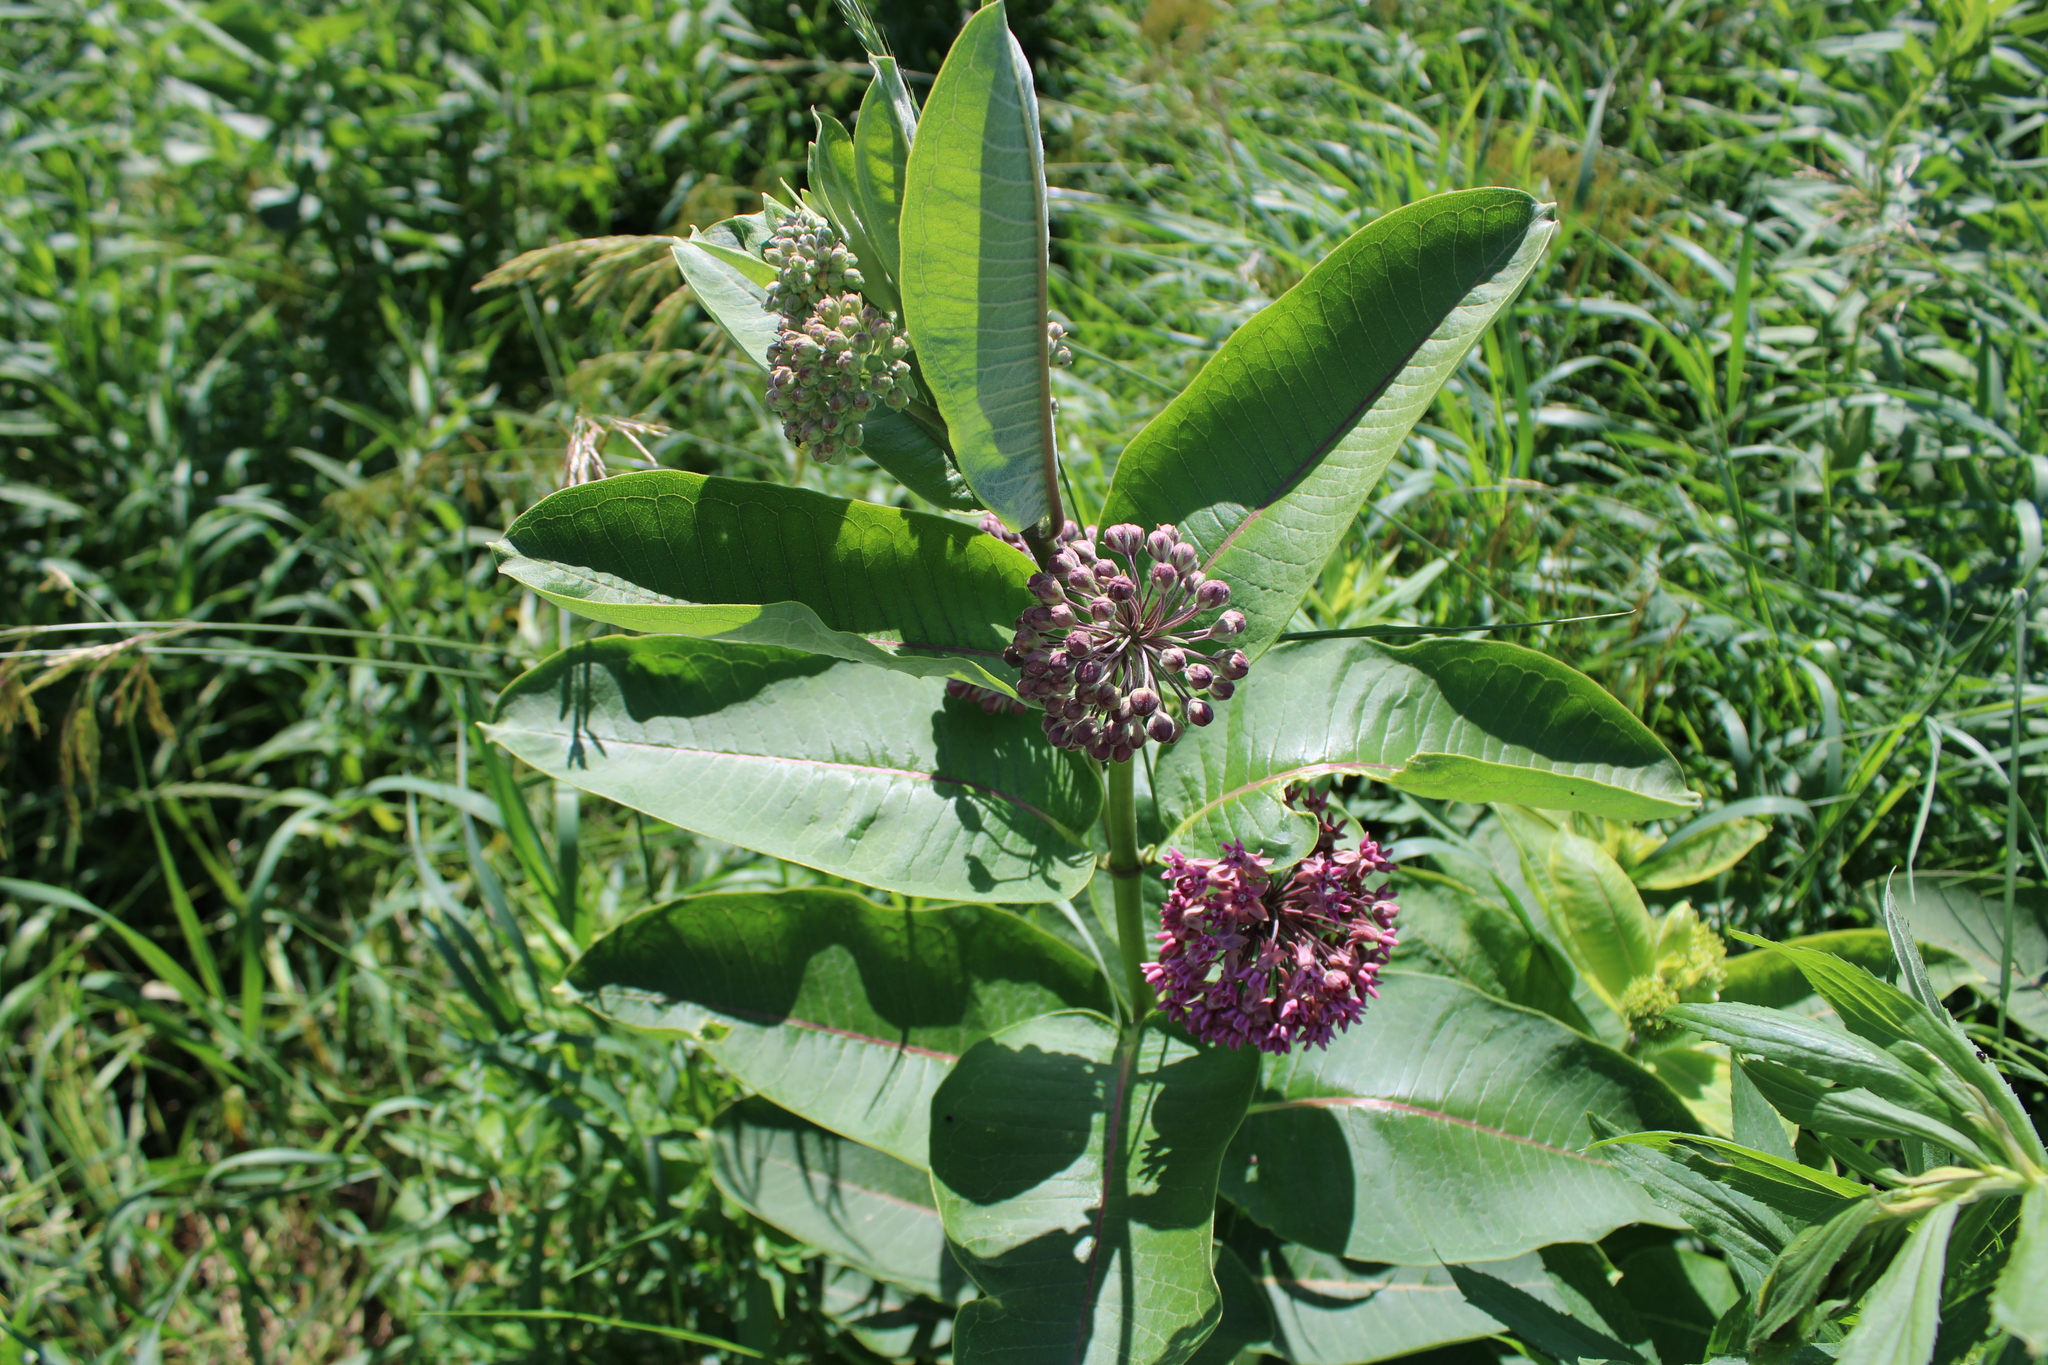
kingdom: Plantae
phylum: Tracheophyta
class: Magnoliopsida
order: Gentianales
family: Apocynaceae
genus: Asclepias
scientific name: Asclepias syriaca
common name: Common milkweed
